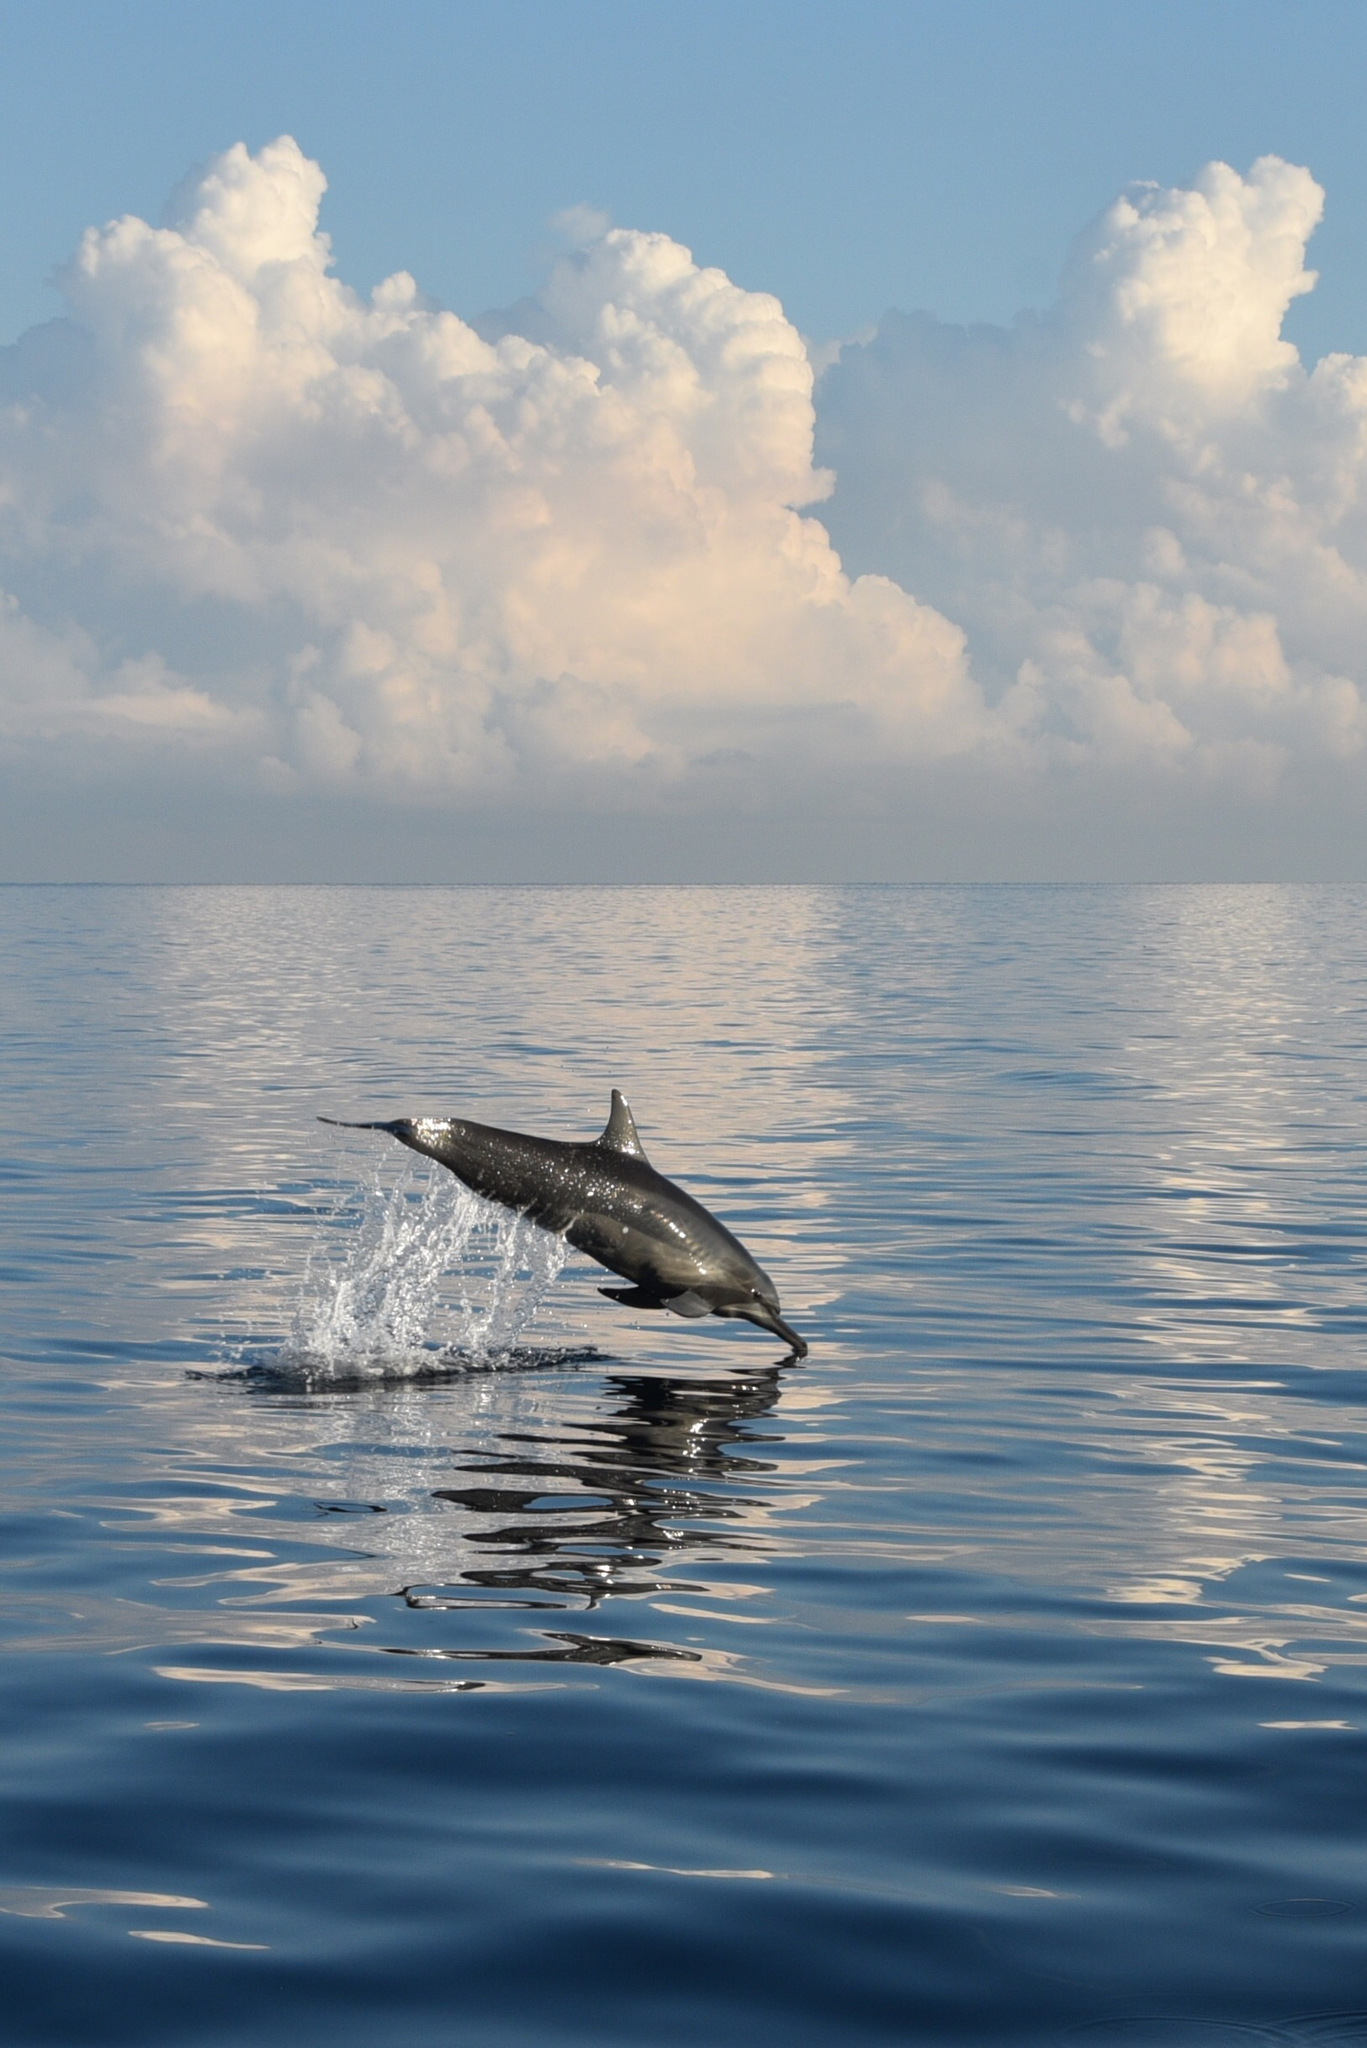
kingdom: Animalia
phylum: Chordata
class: Mammalia
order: Cetacea
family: Delphinidae
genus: Stenella
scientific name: Stenella longirostris
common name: Spinner dolphin
